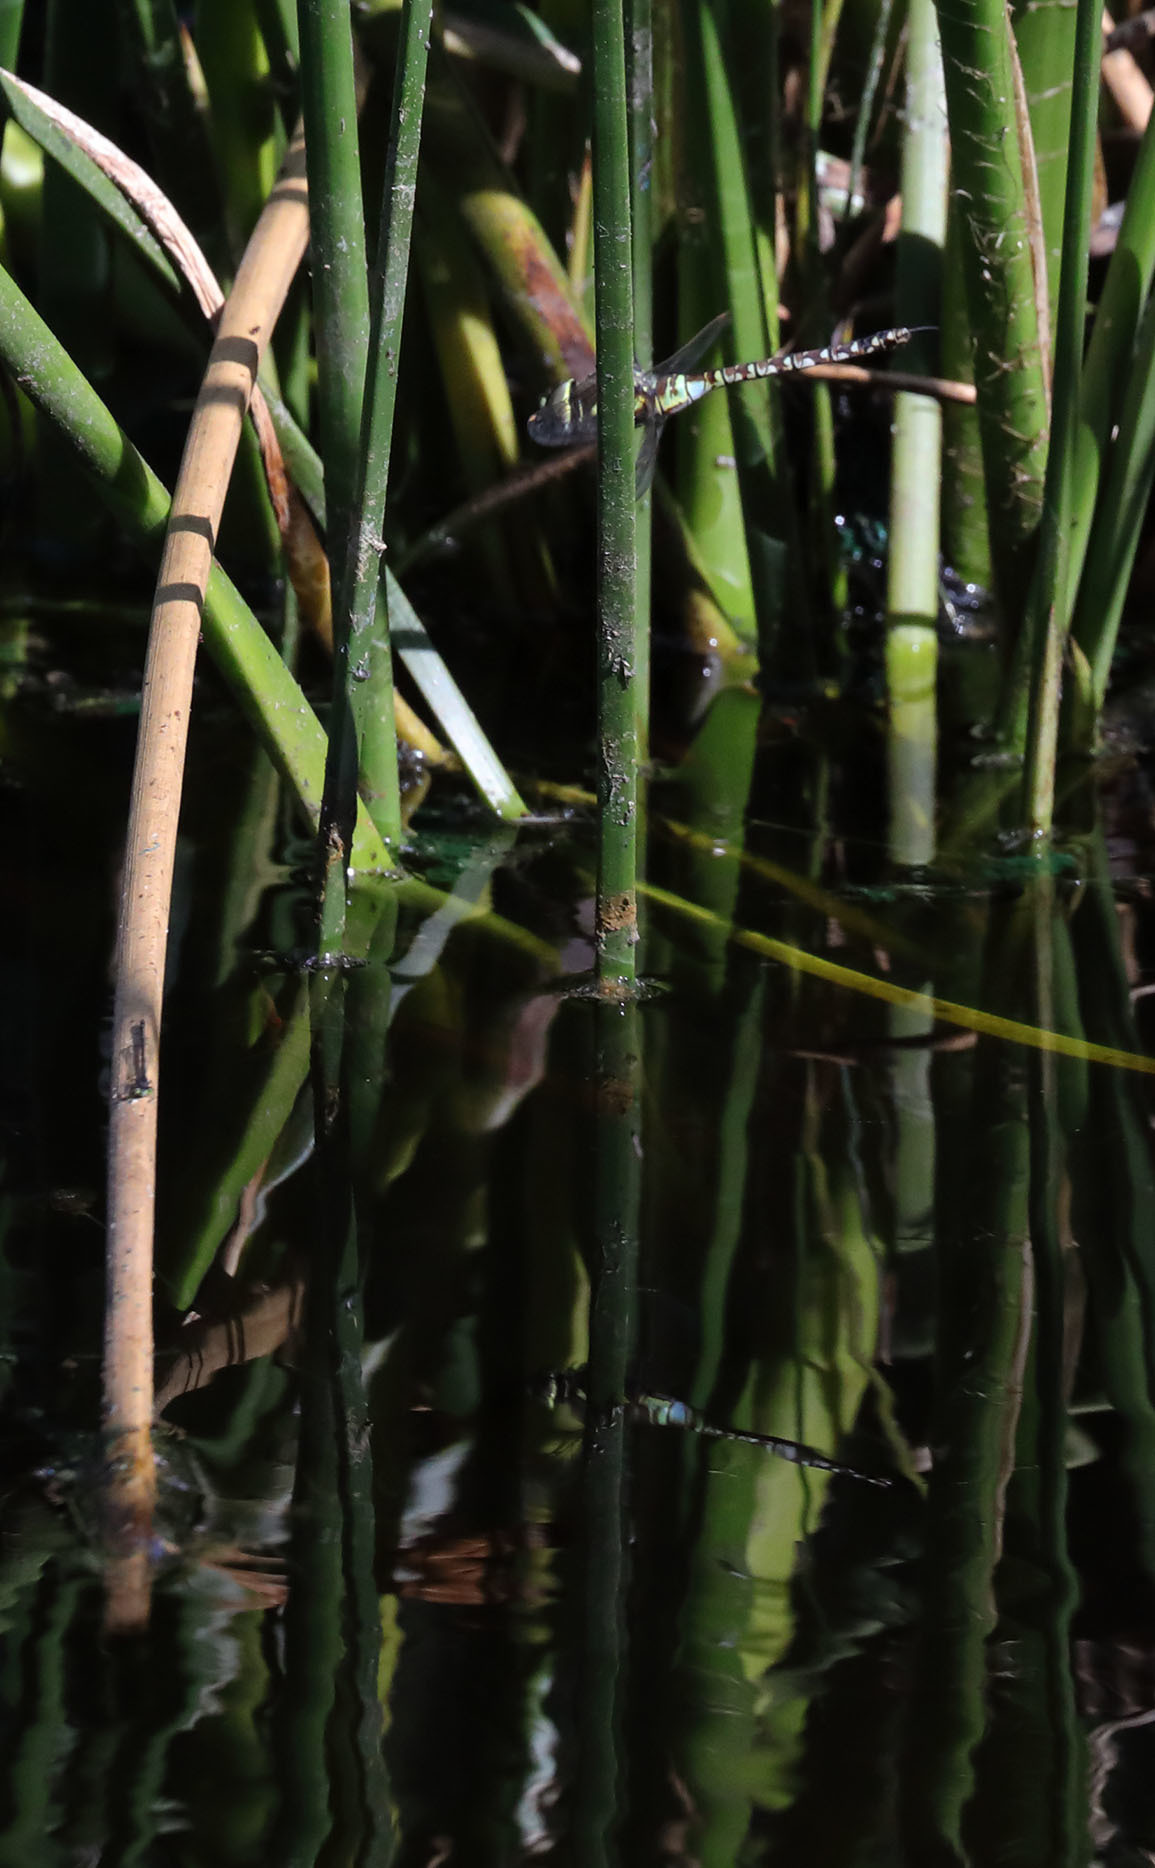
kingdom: Animalia
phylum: Arthropoda
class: Insecta
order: Odonata
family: Aeshnidae
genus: Rhionaeschna
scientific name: Rhionaeschna multicolor
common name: Blue-eyed darner
